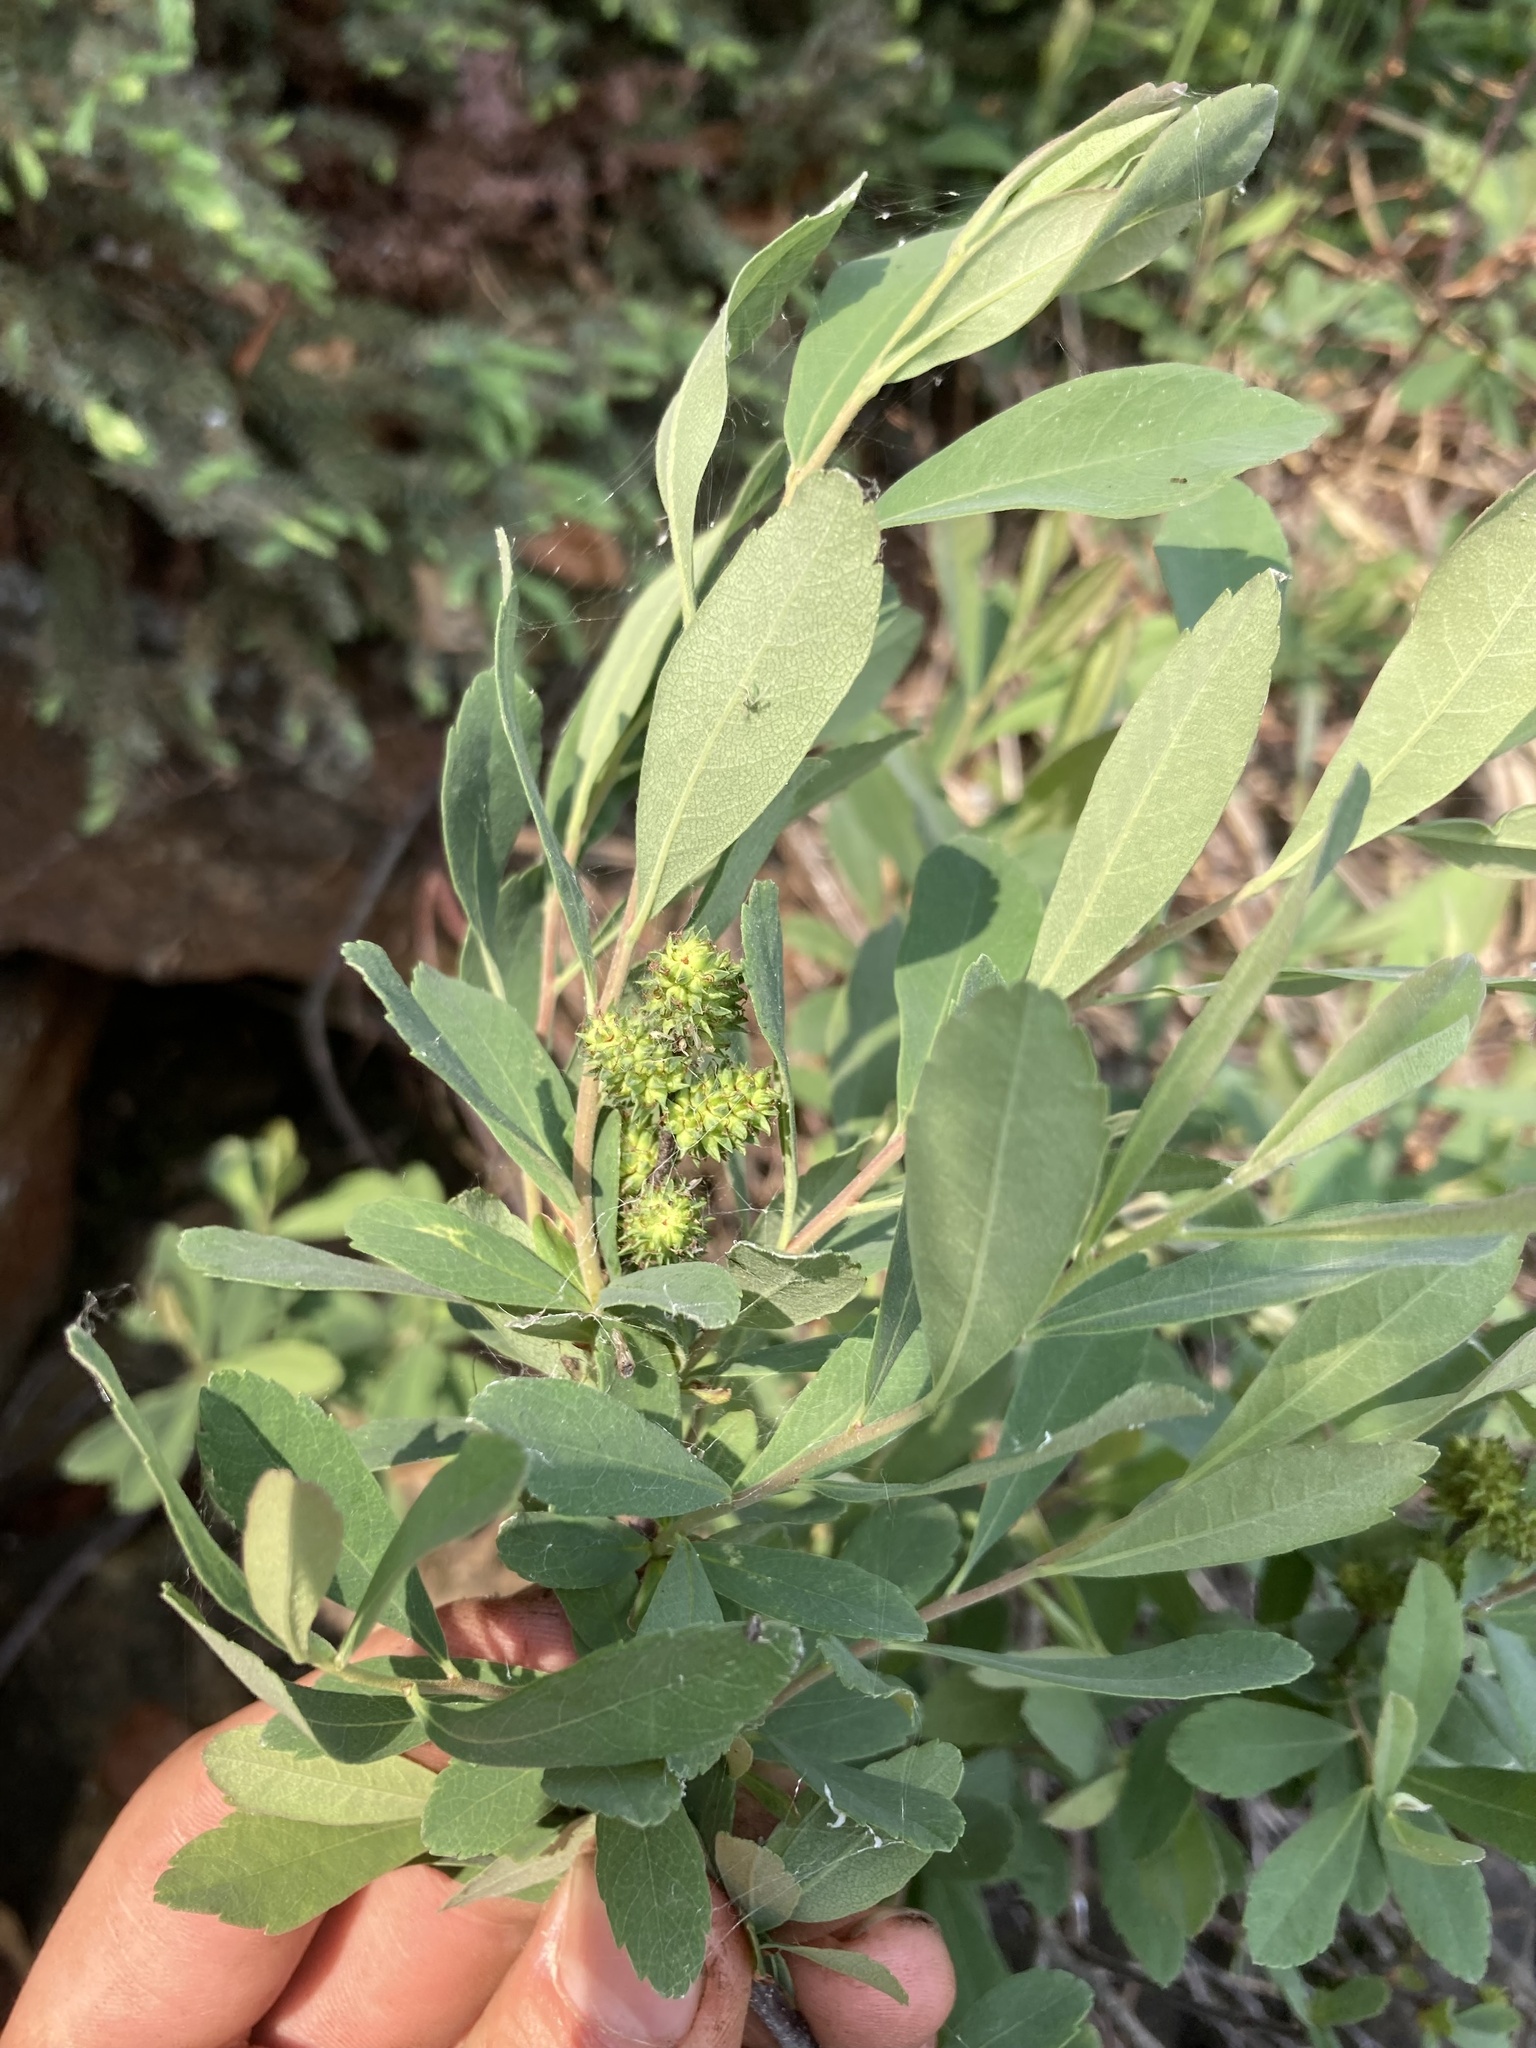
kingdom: Plantae
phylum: Tracheophyta
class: Magnoliopsida
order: Fagales
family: Myricaceae
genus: Myrica
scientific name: Myrica gale
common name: Sweet gale
